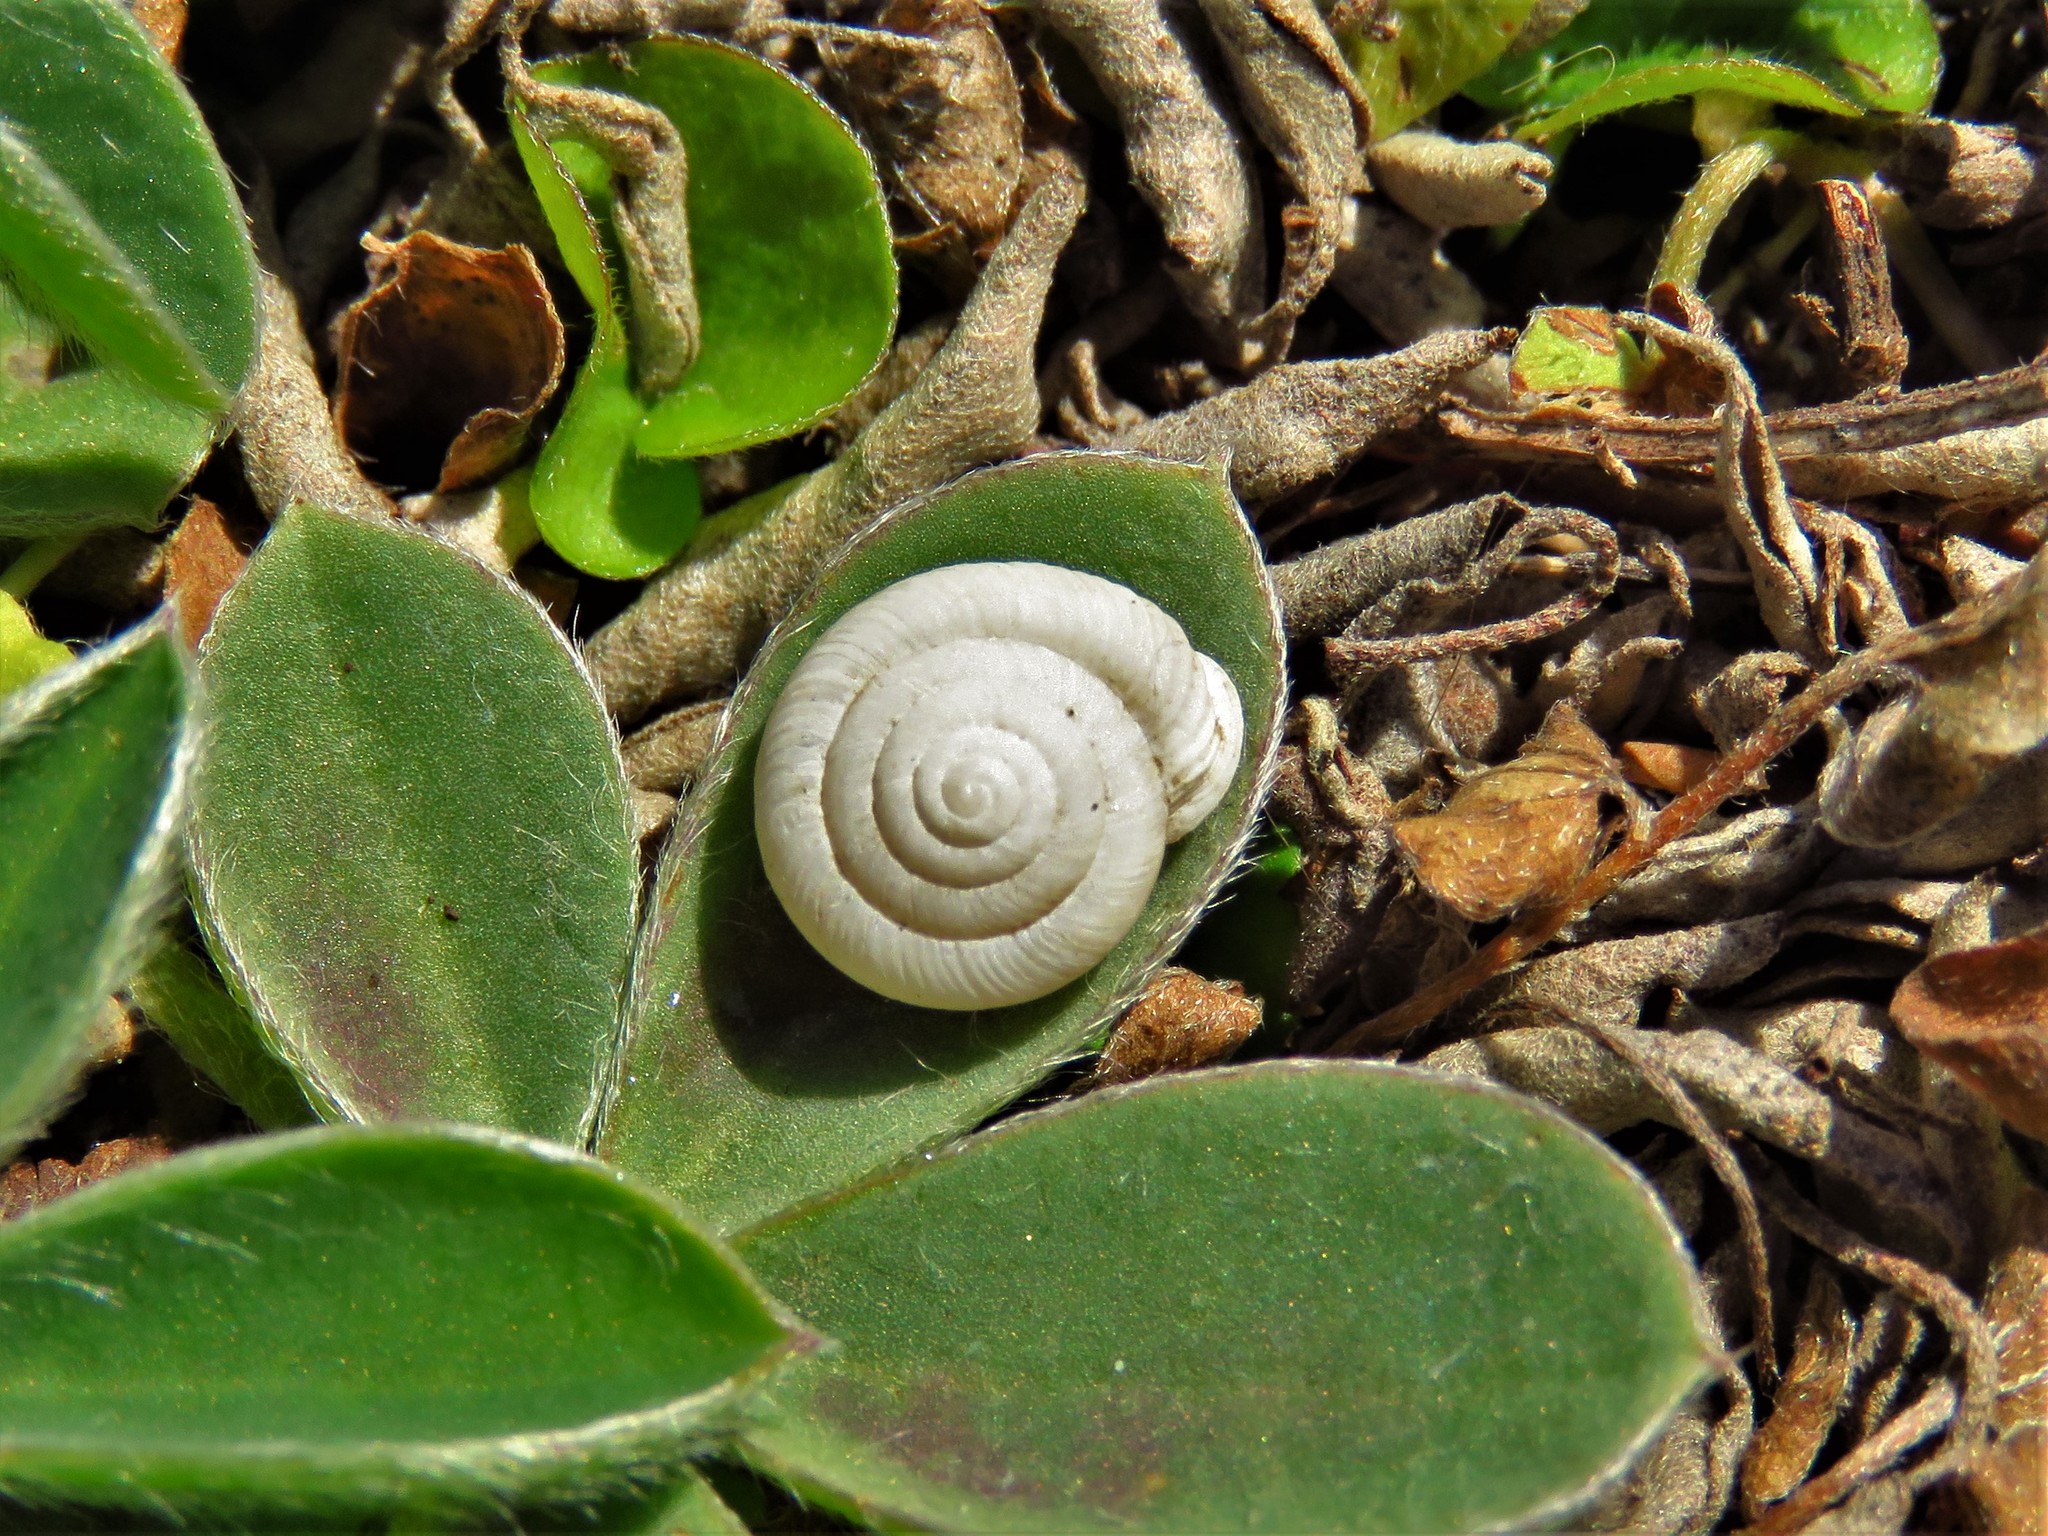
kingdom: Animalia
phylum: Mollusca
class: Gastropoda
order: Stylommatophora
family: Polygyridae
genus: Linisa
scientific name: Linisa texasiana
